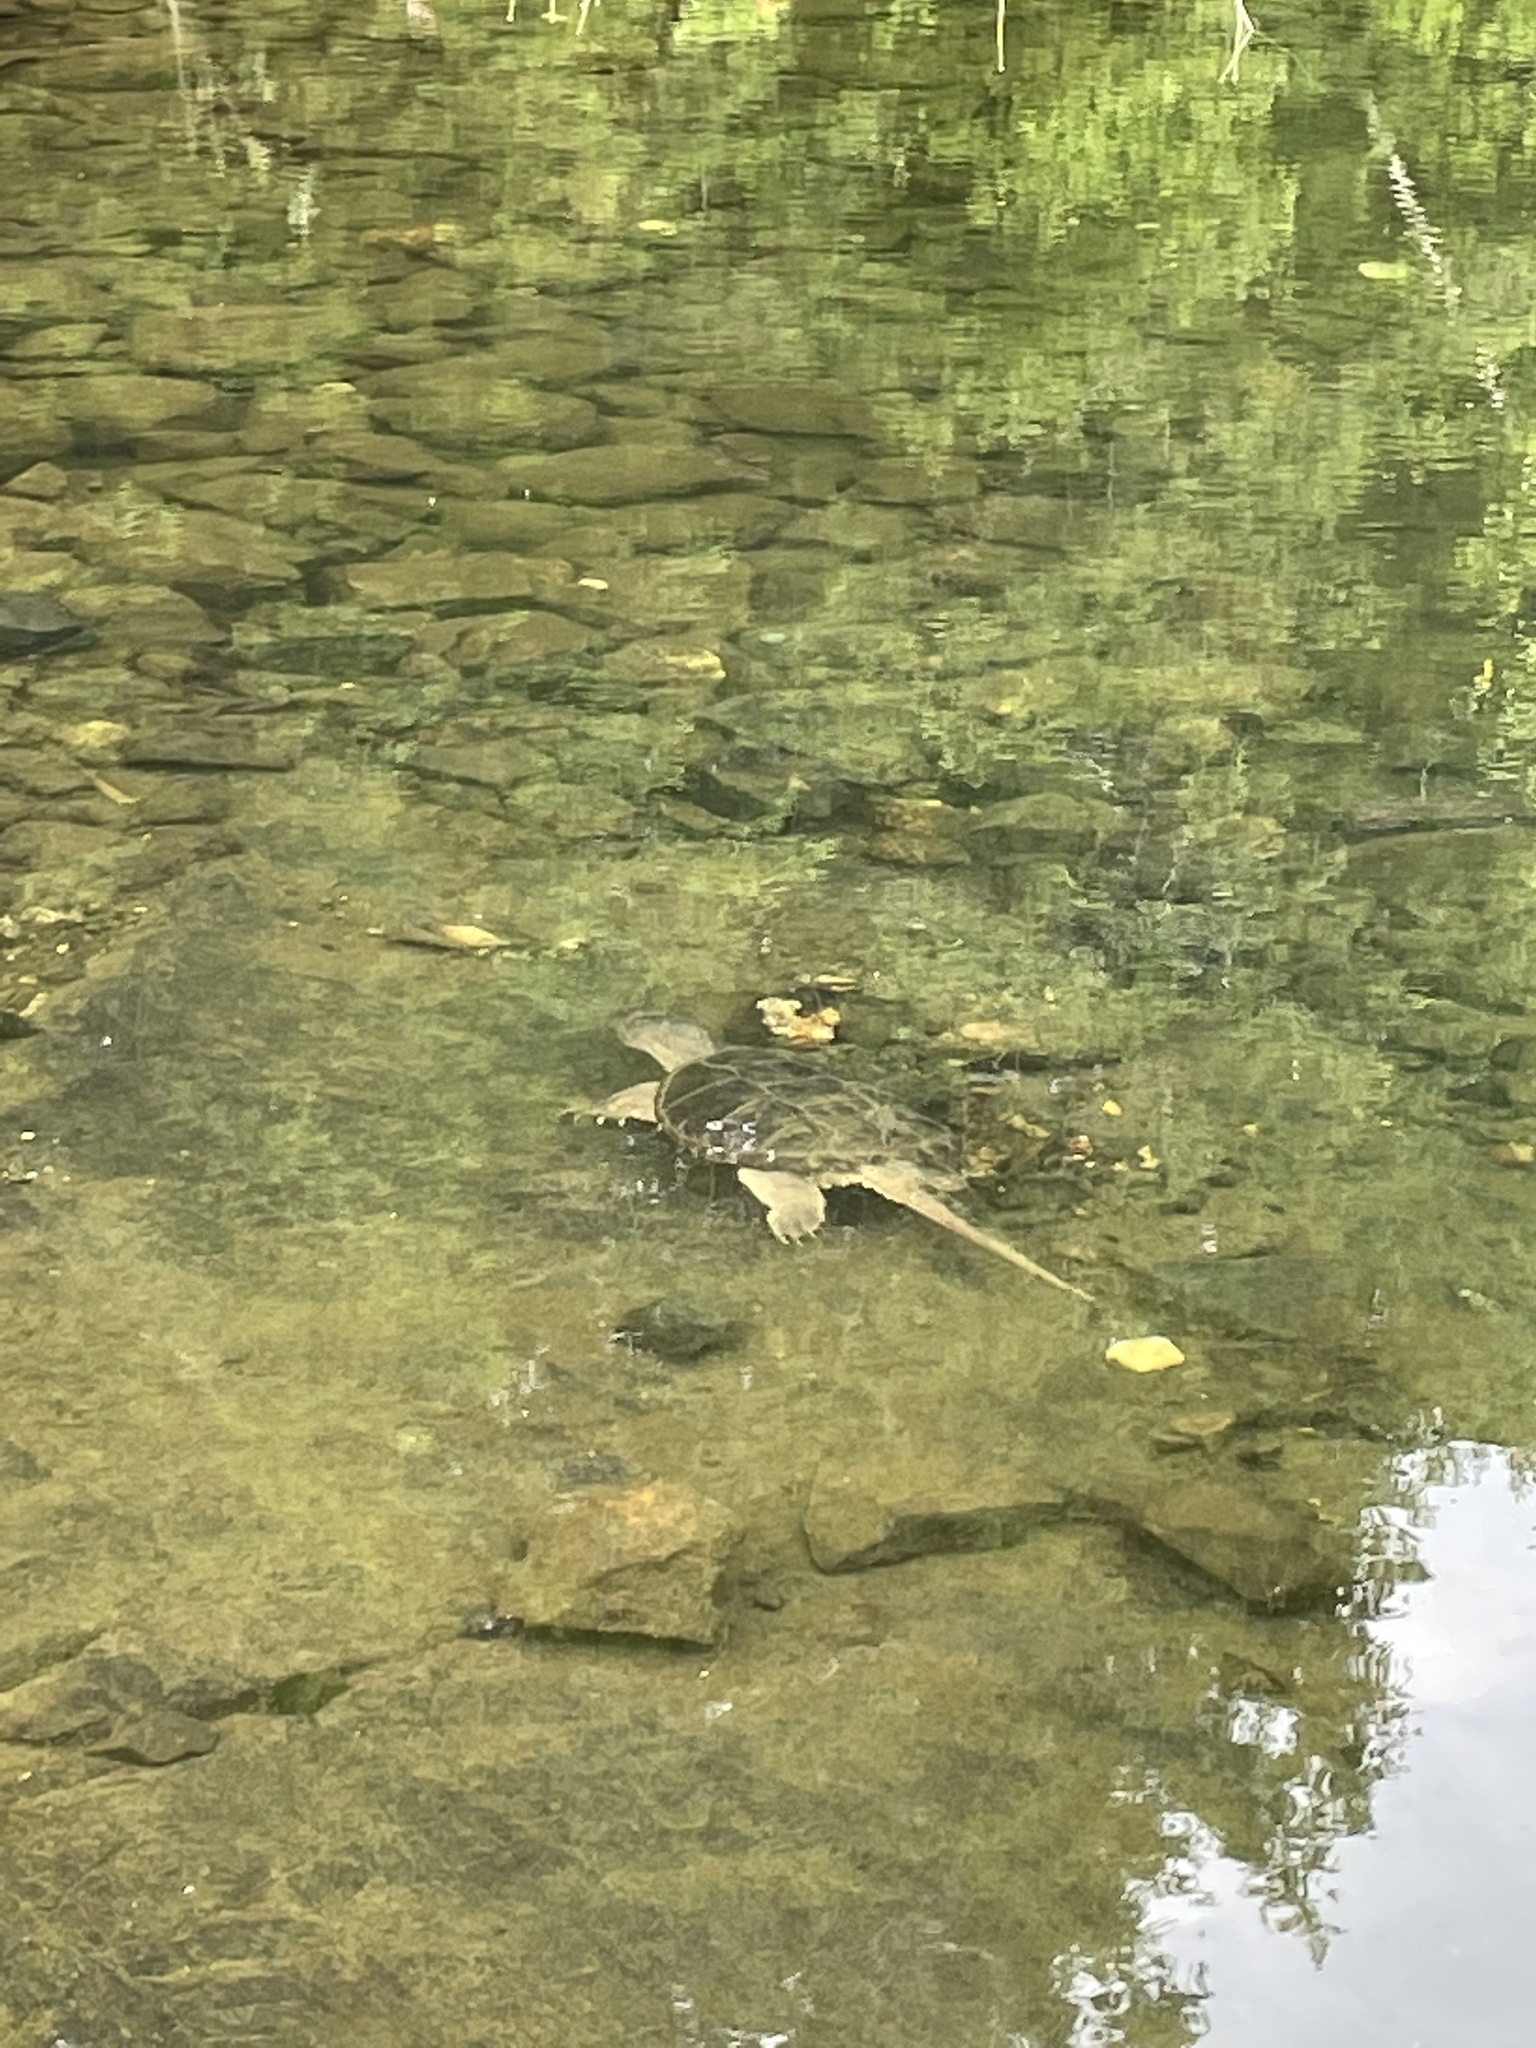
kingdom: Animalia
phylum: Chordata
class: Testudines
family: Chelydridae
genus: Chelydra
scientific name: Chelydra serpentina
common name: Common snapping turtle
